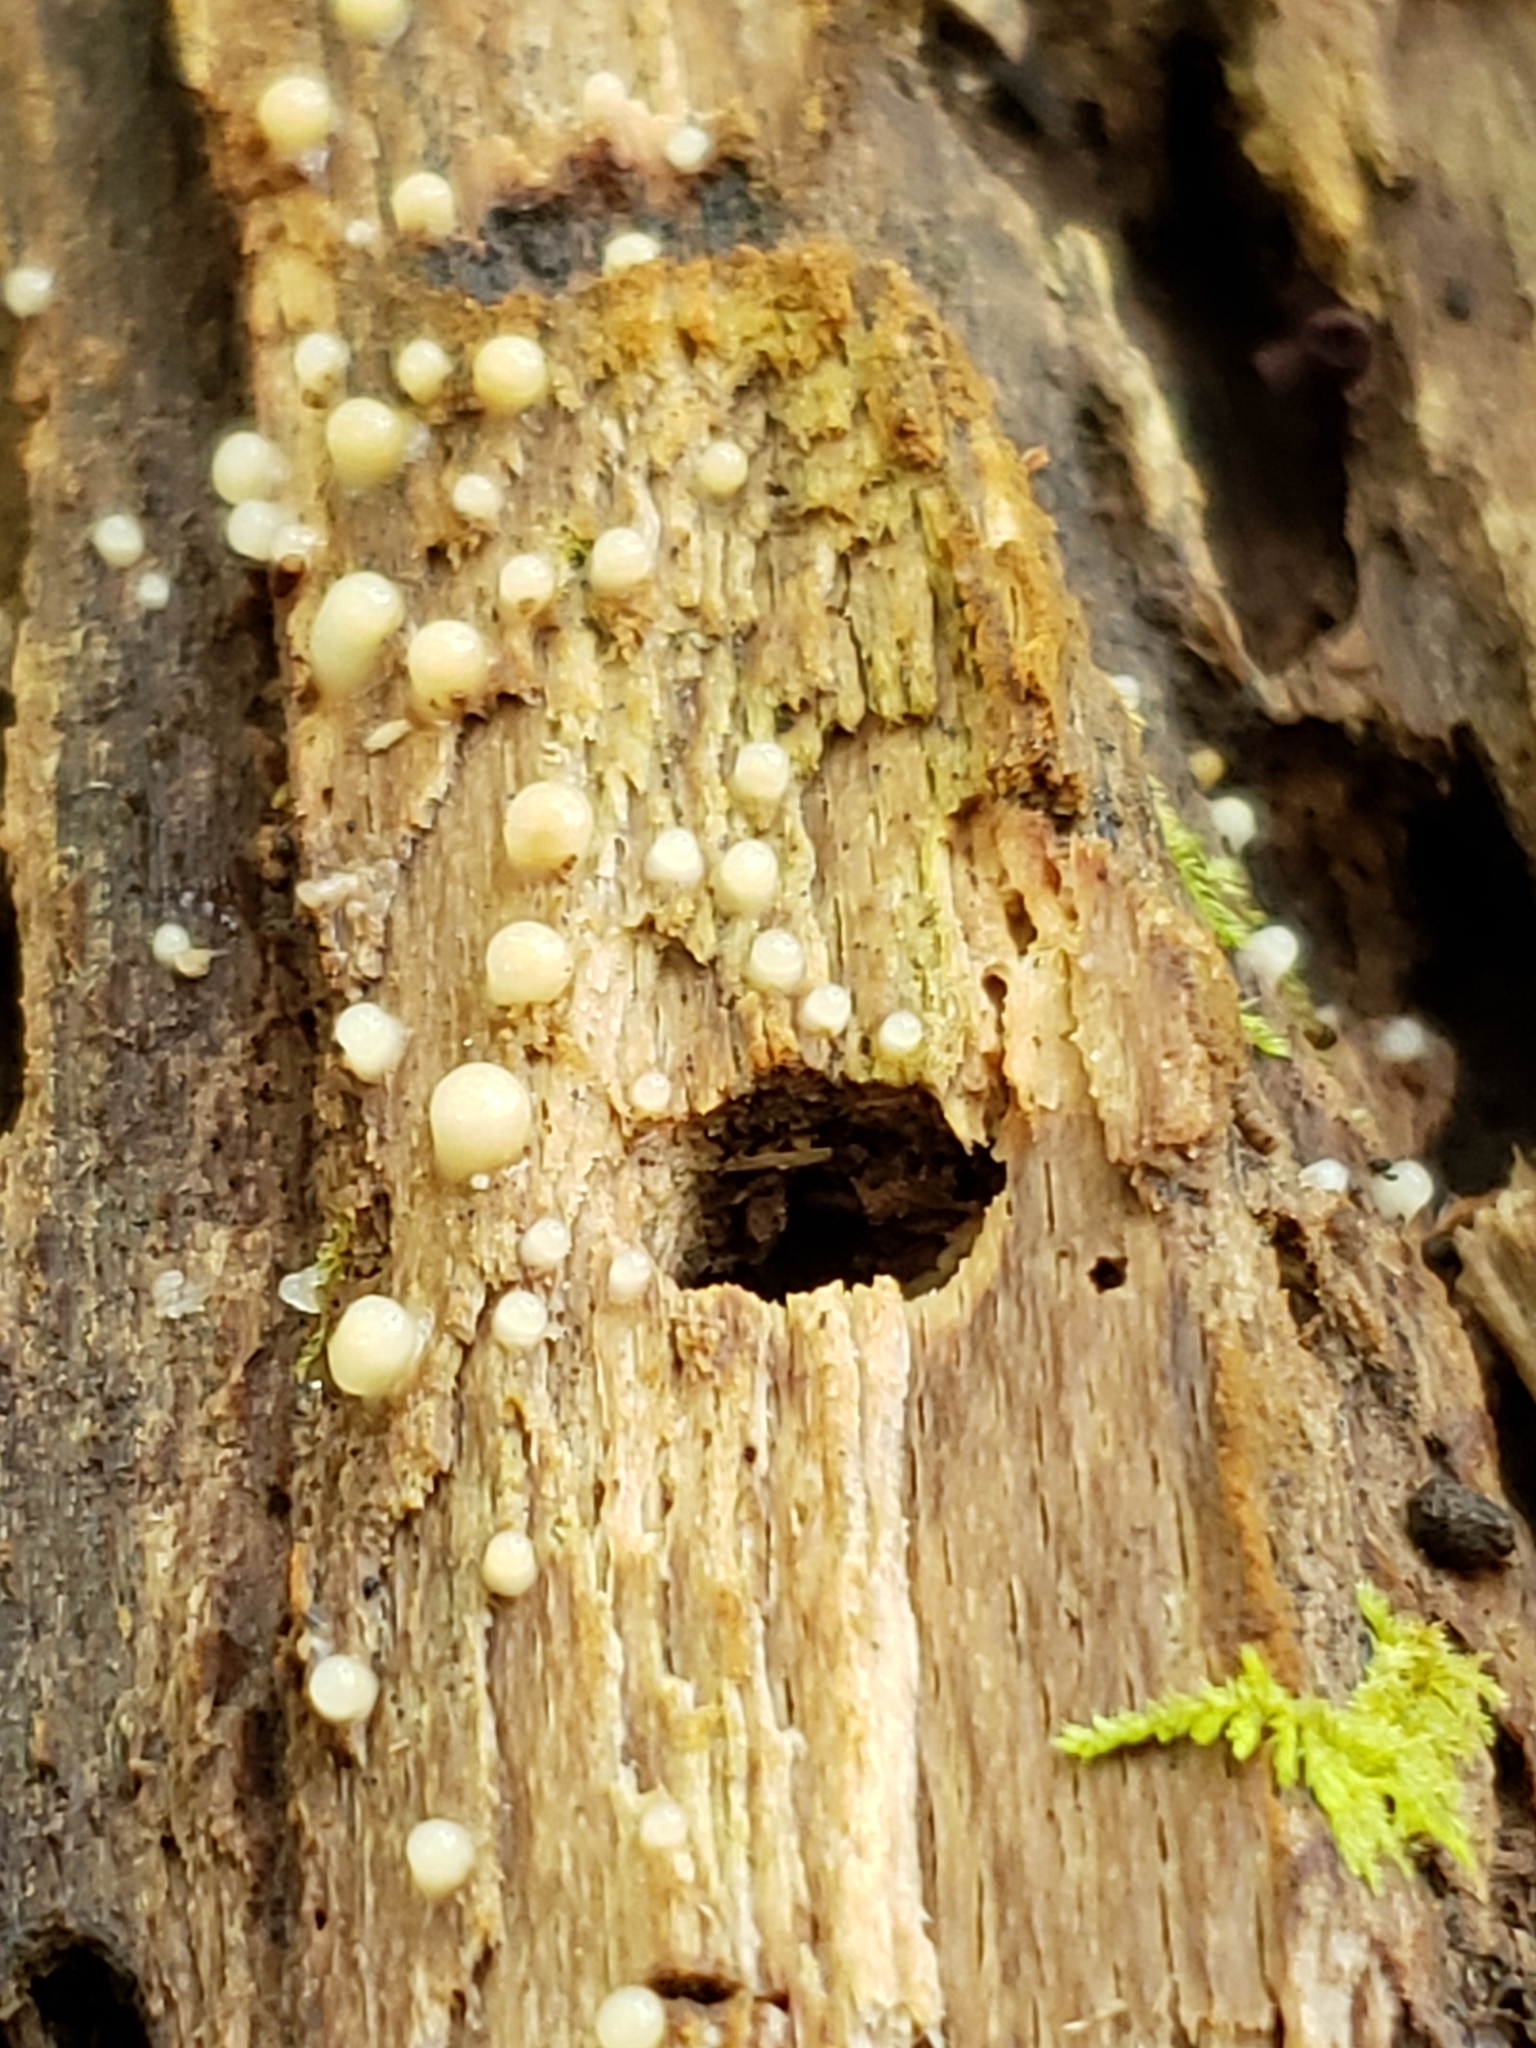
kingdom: Fungi
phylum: Basidiomycota
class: Atractiellomycetes
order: Atractiellales
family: Phleogenaceae
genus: Helicogloea
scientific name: Helicogloea compressa
